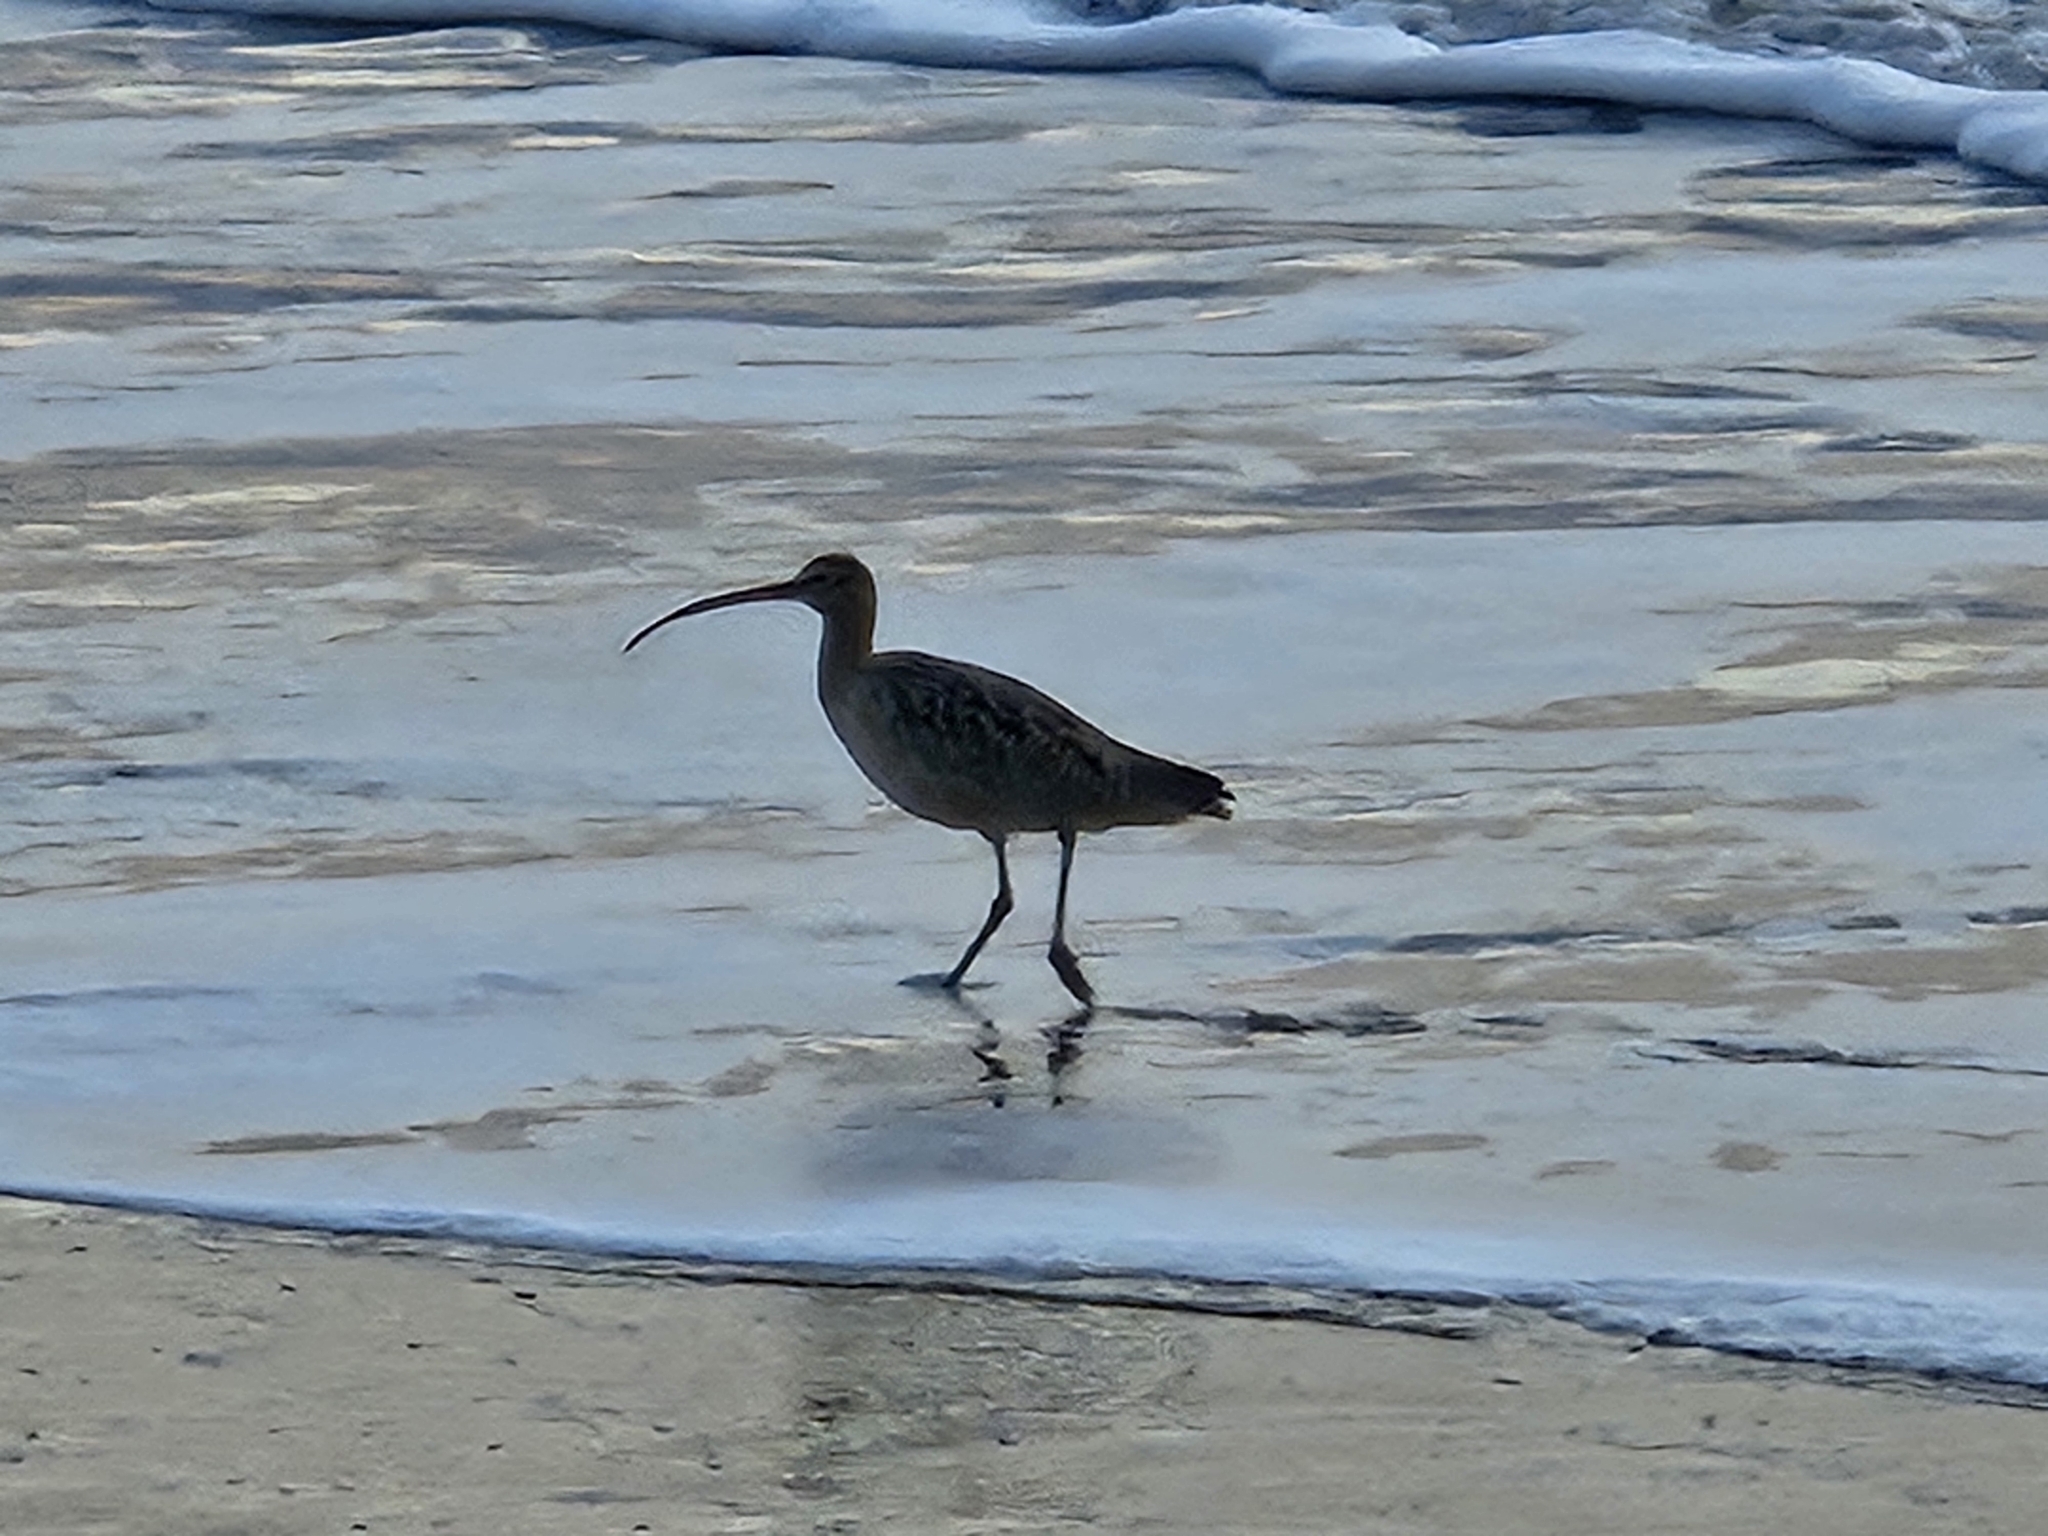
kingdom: Animalia
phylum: Chordata
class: Aves
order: Charadriiformes
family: Scolopacidae
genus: Numenius
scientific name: Numenius americanus
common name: Long-billed curlew
